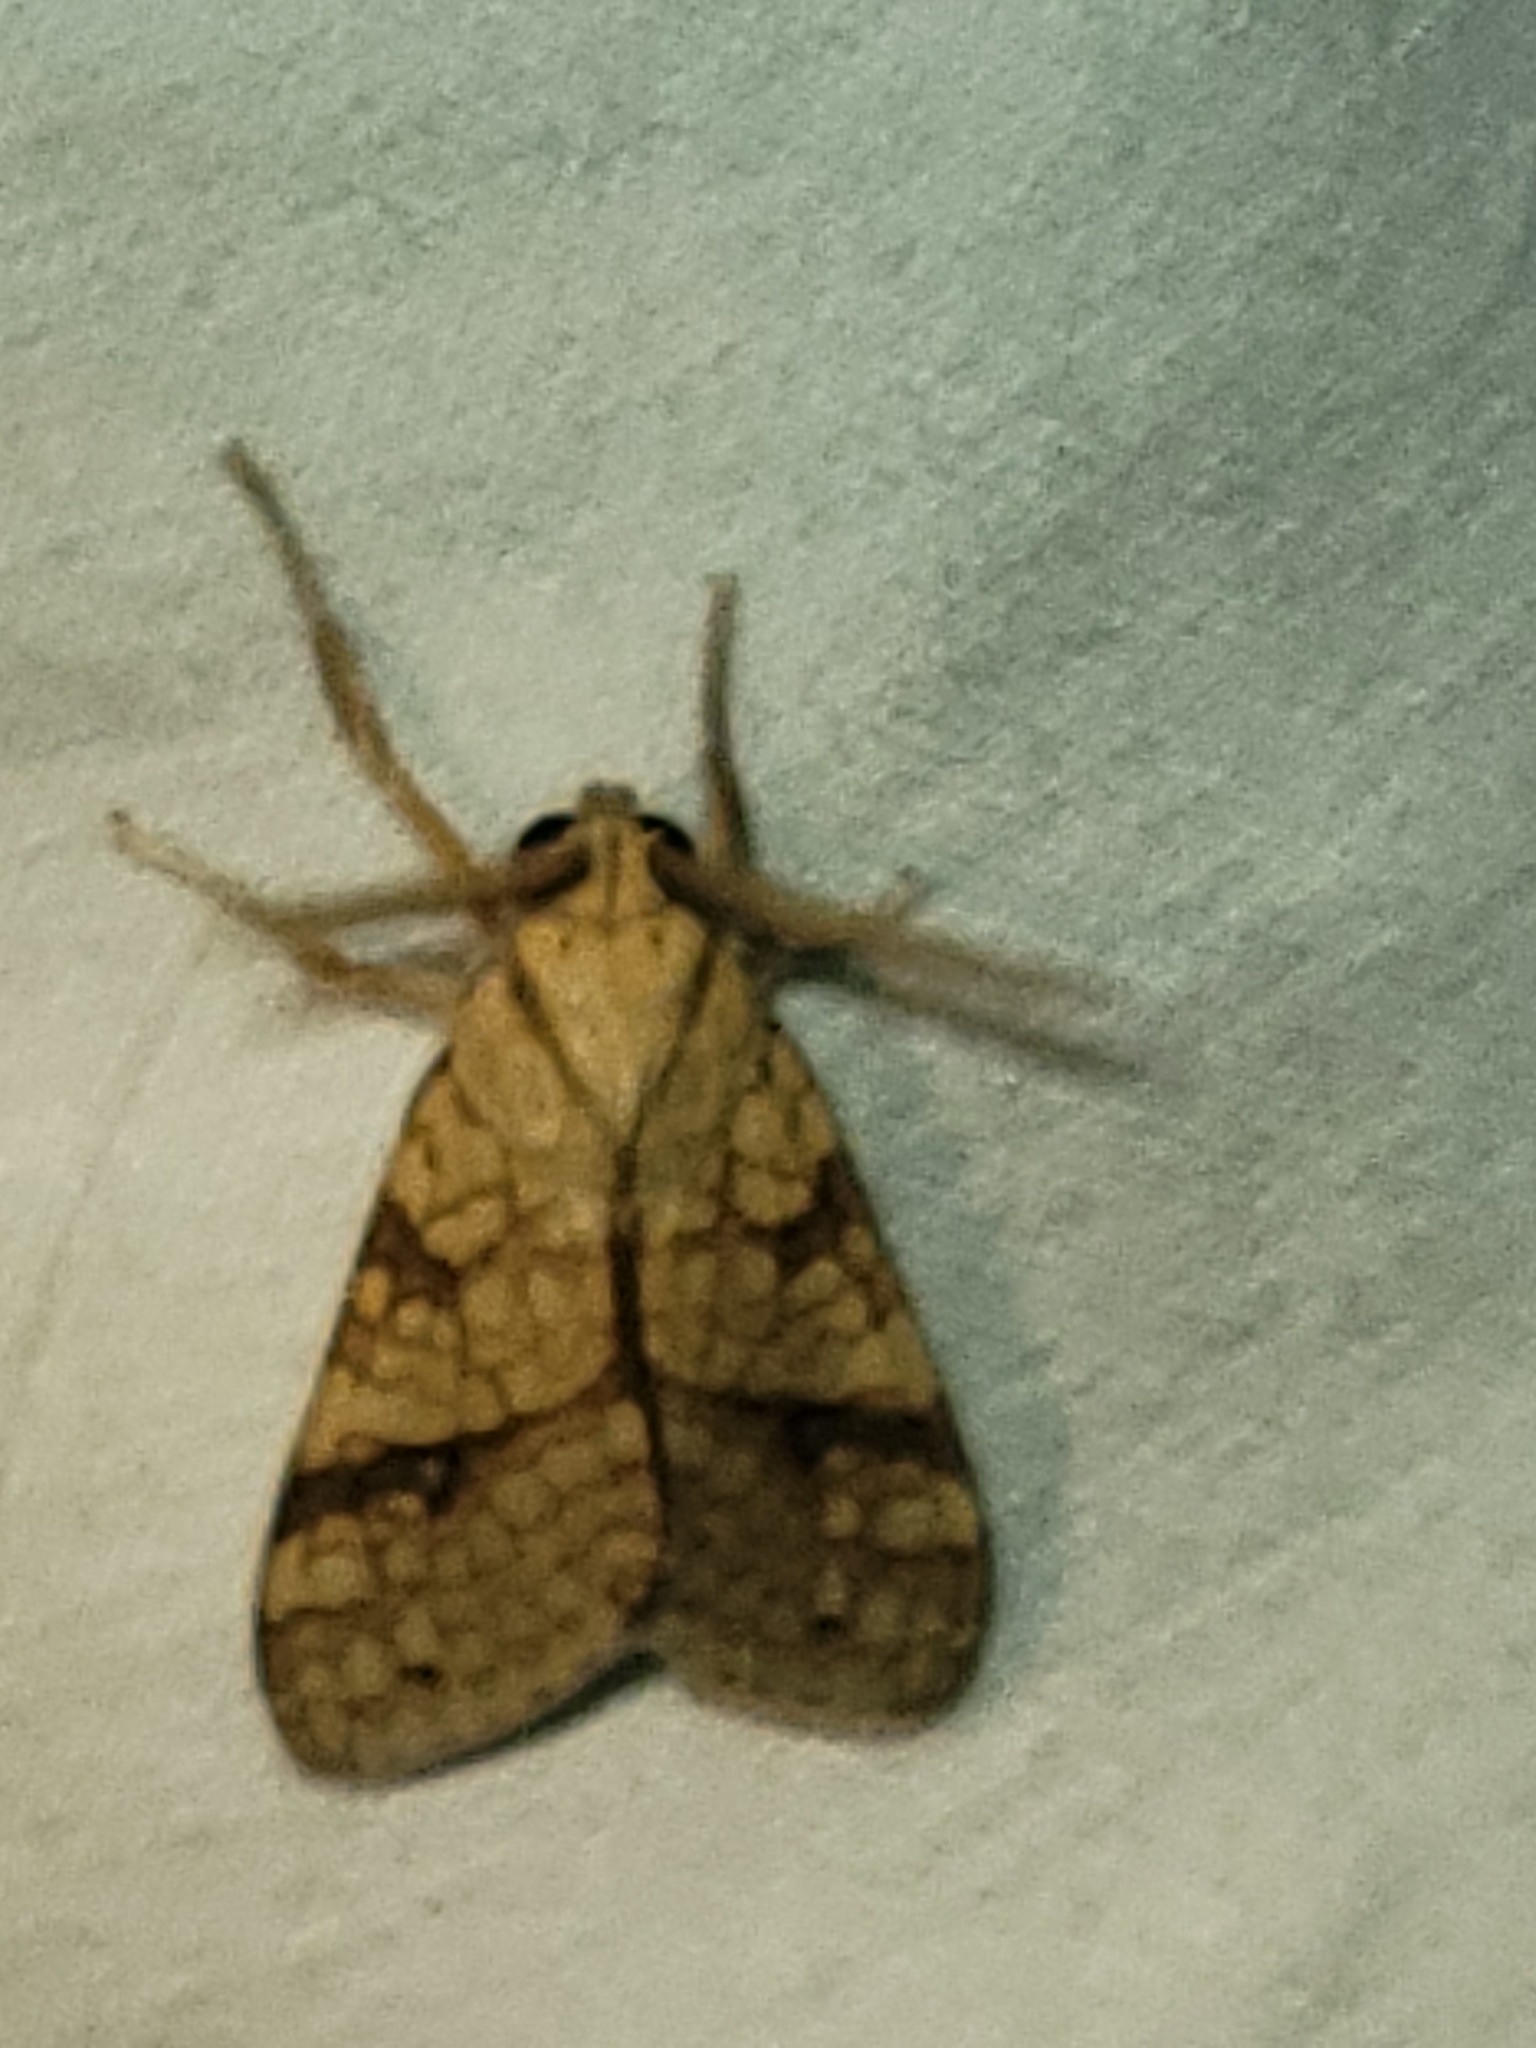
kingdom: Animalia
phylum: Arthropoda
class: Insecta
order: Lepidoptera
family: Erebidae
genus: Lophocampa
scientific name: Lophocampa annulosa
